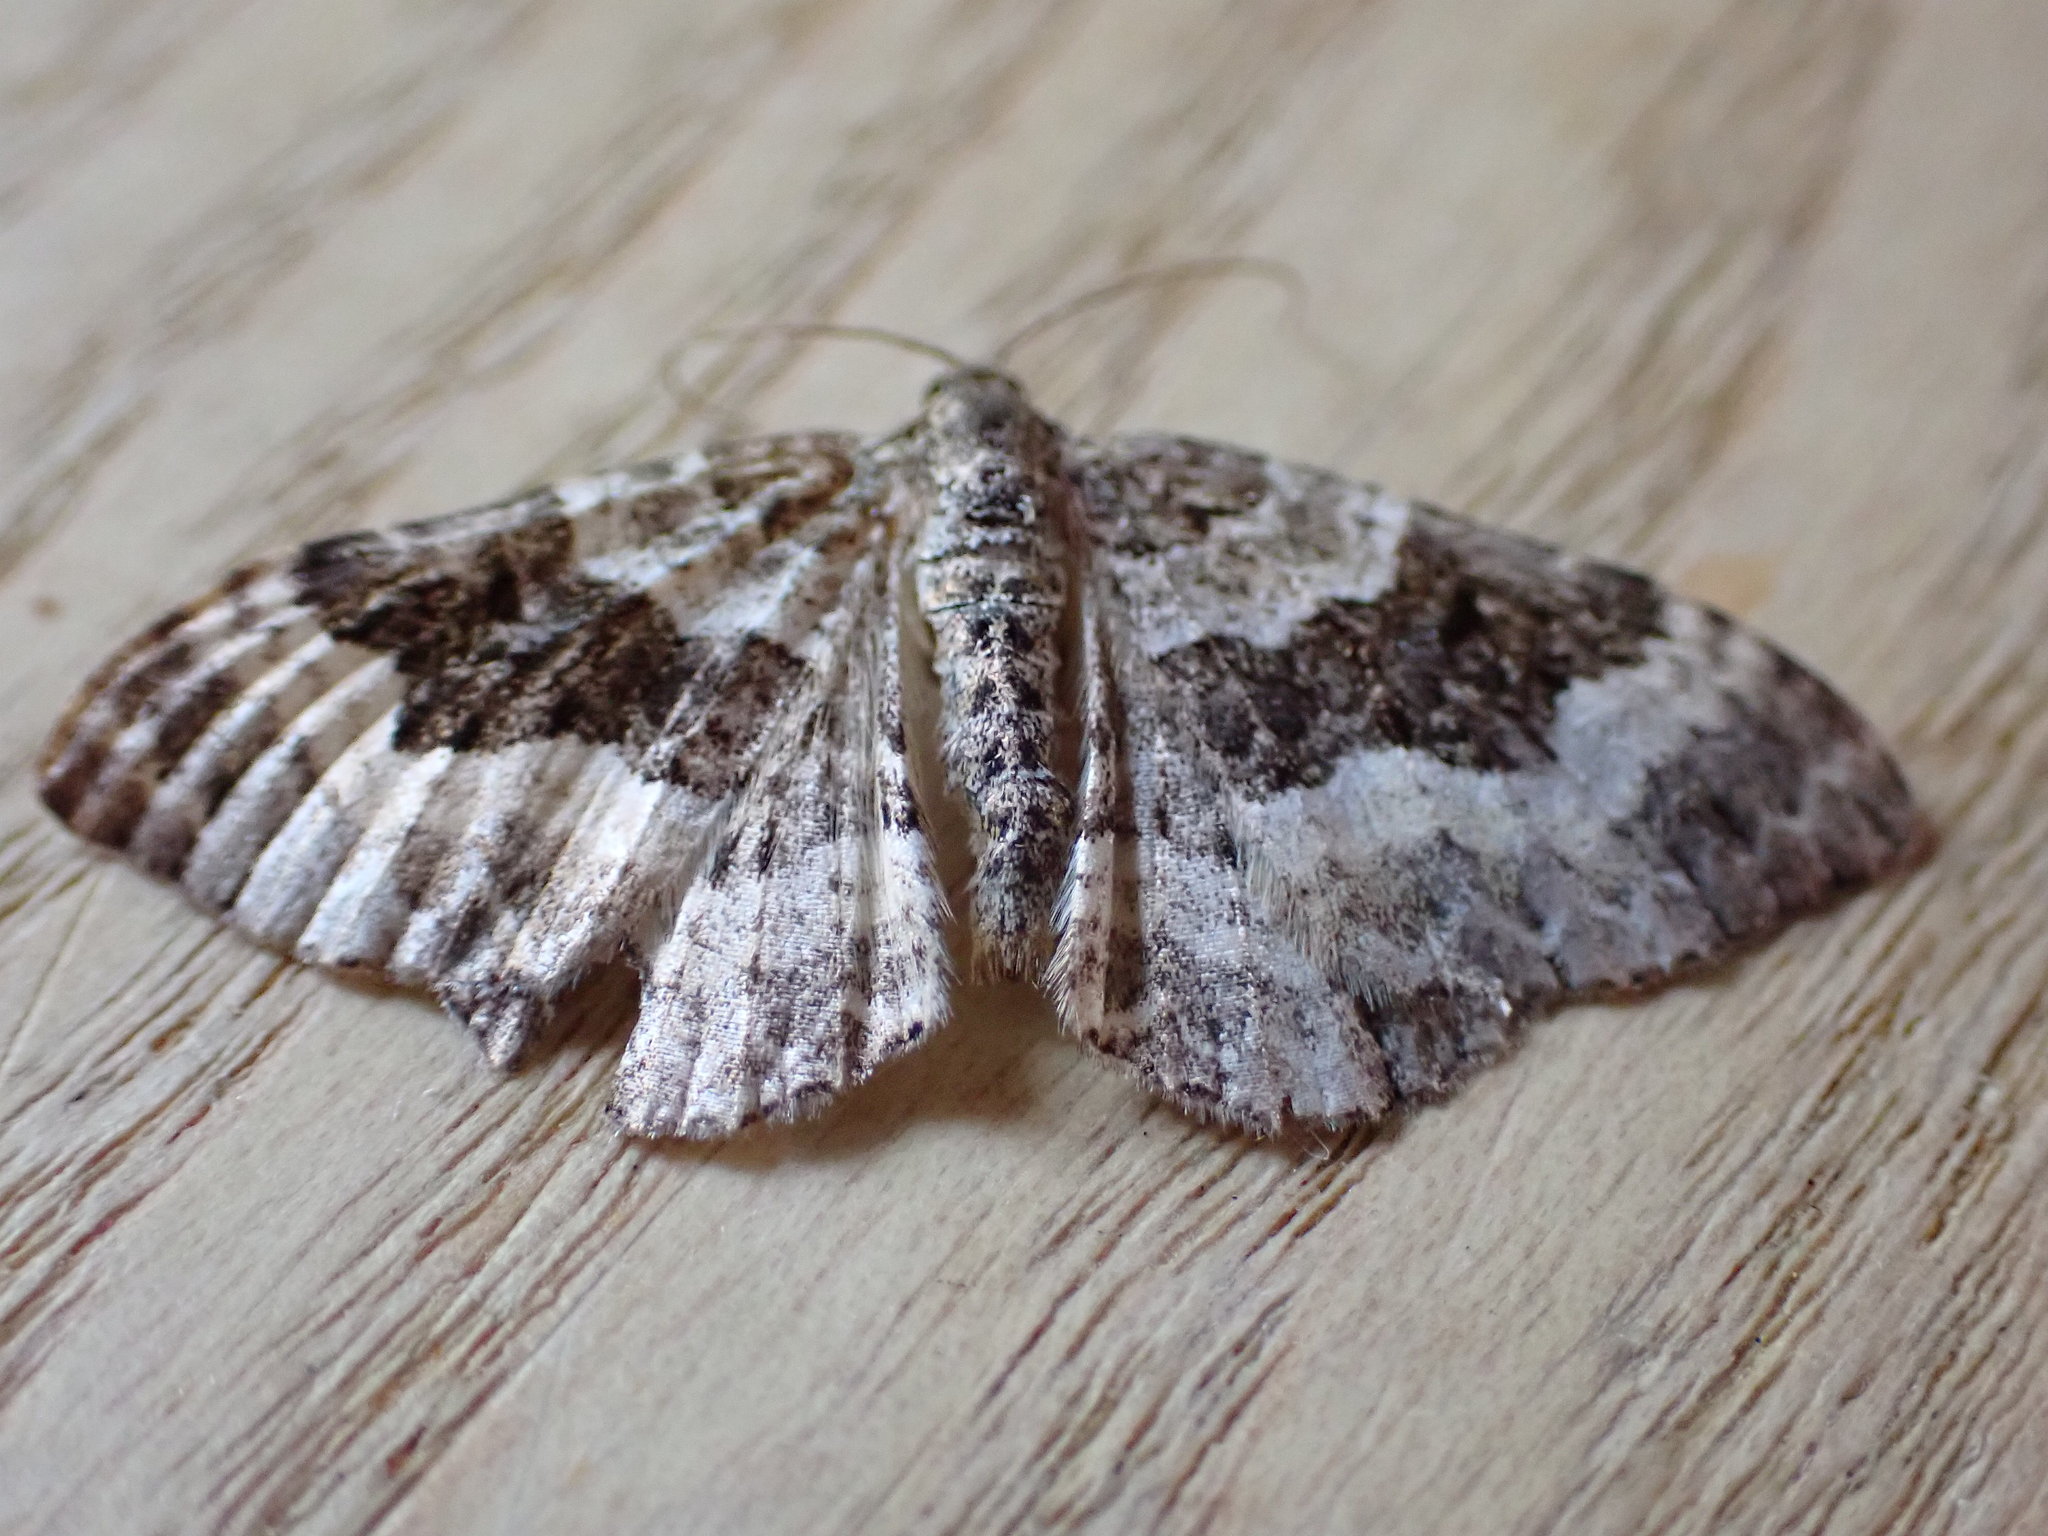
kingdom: Animalia
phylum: Arthropoda
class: Insecta
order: Lepidoptera
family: Geometridae
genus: Epirrhoe
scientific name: Epirrhoe alternata
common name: Common carpet
